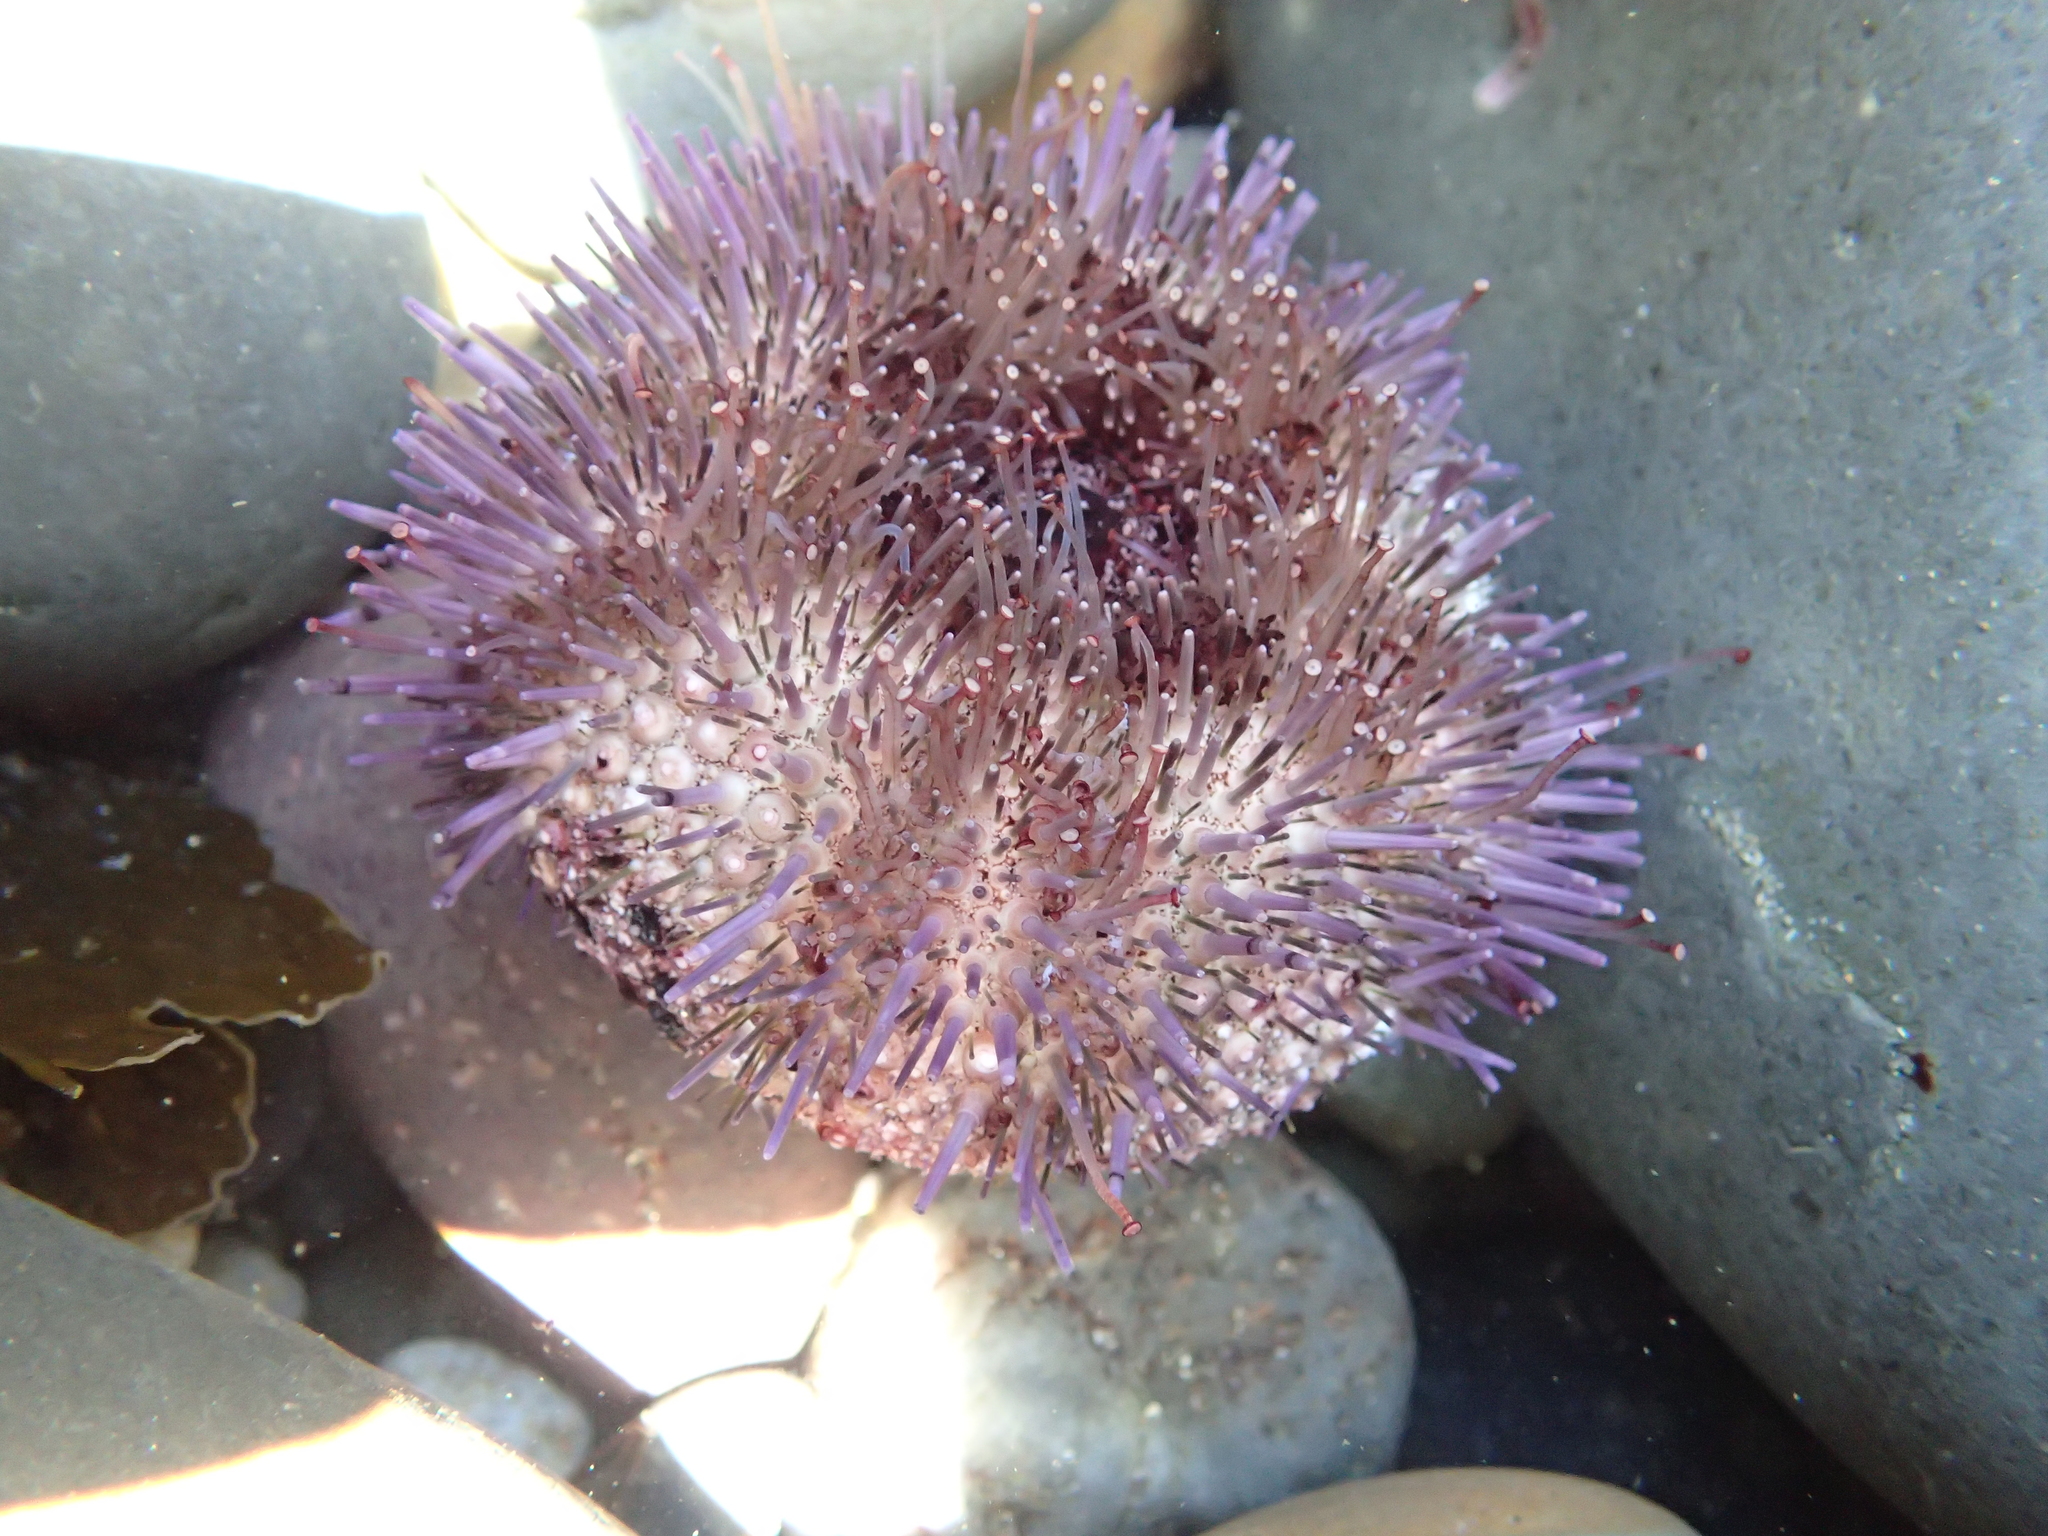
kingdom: Animalia
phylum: Echinodermata
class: Echinoidea
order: Camarodonta
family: Strongylocentrotidae
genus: Strongylocentrotus
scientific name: Strongylocentrotus purpuratus
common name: Purple sea urchin
